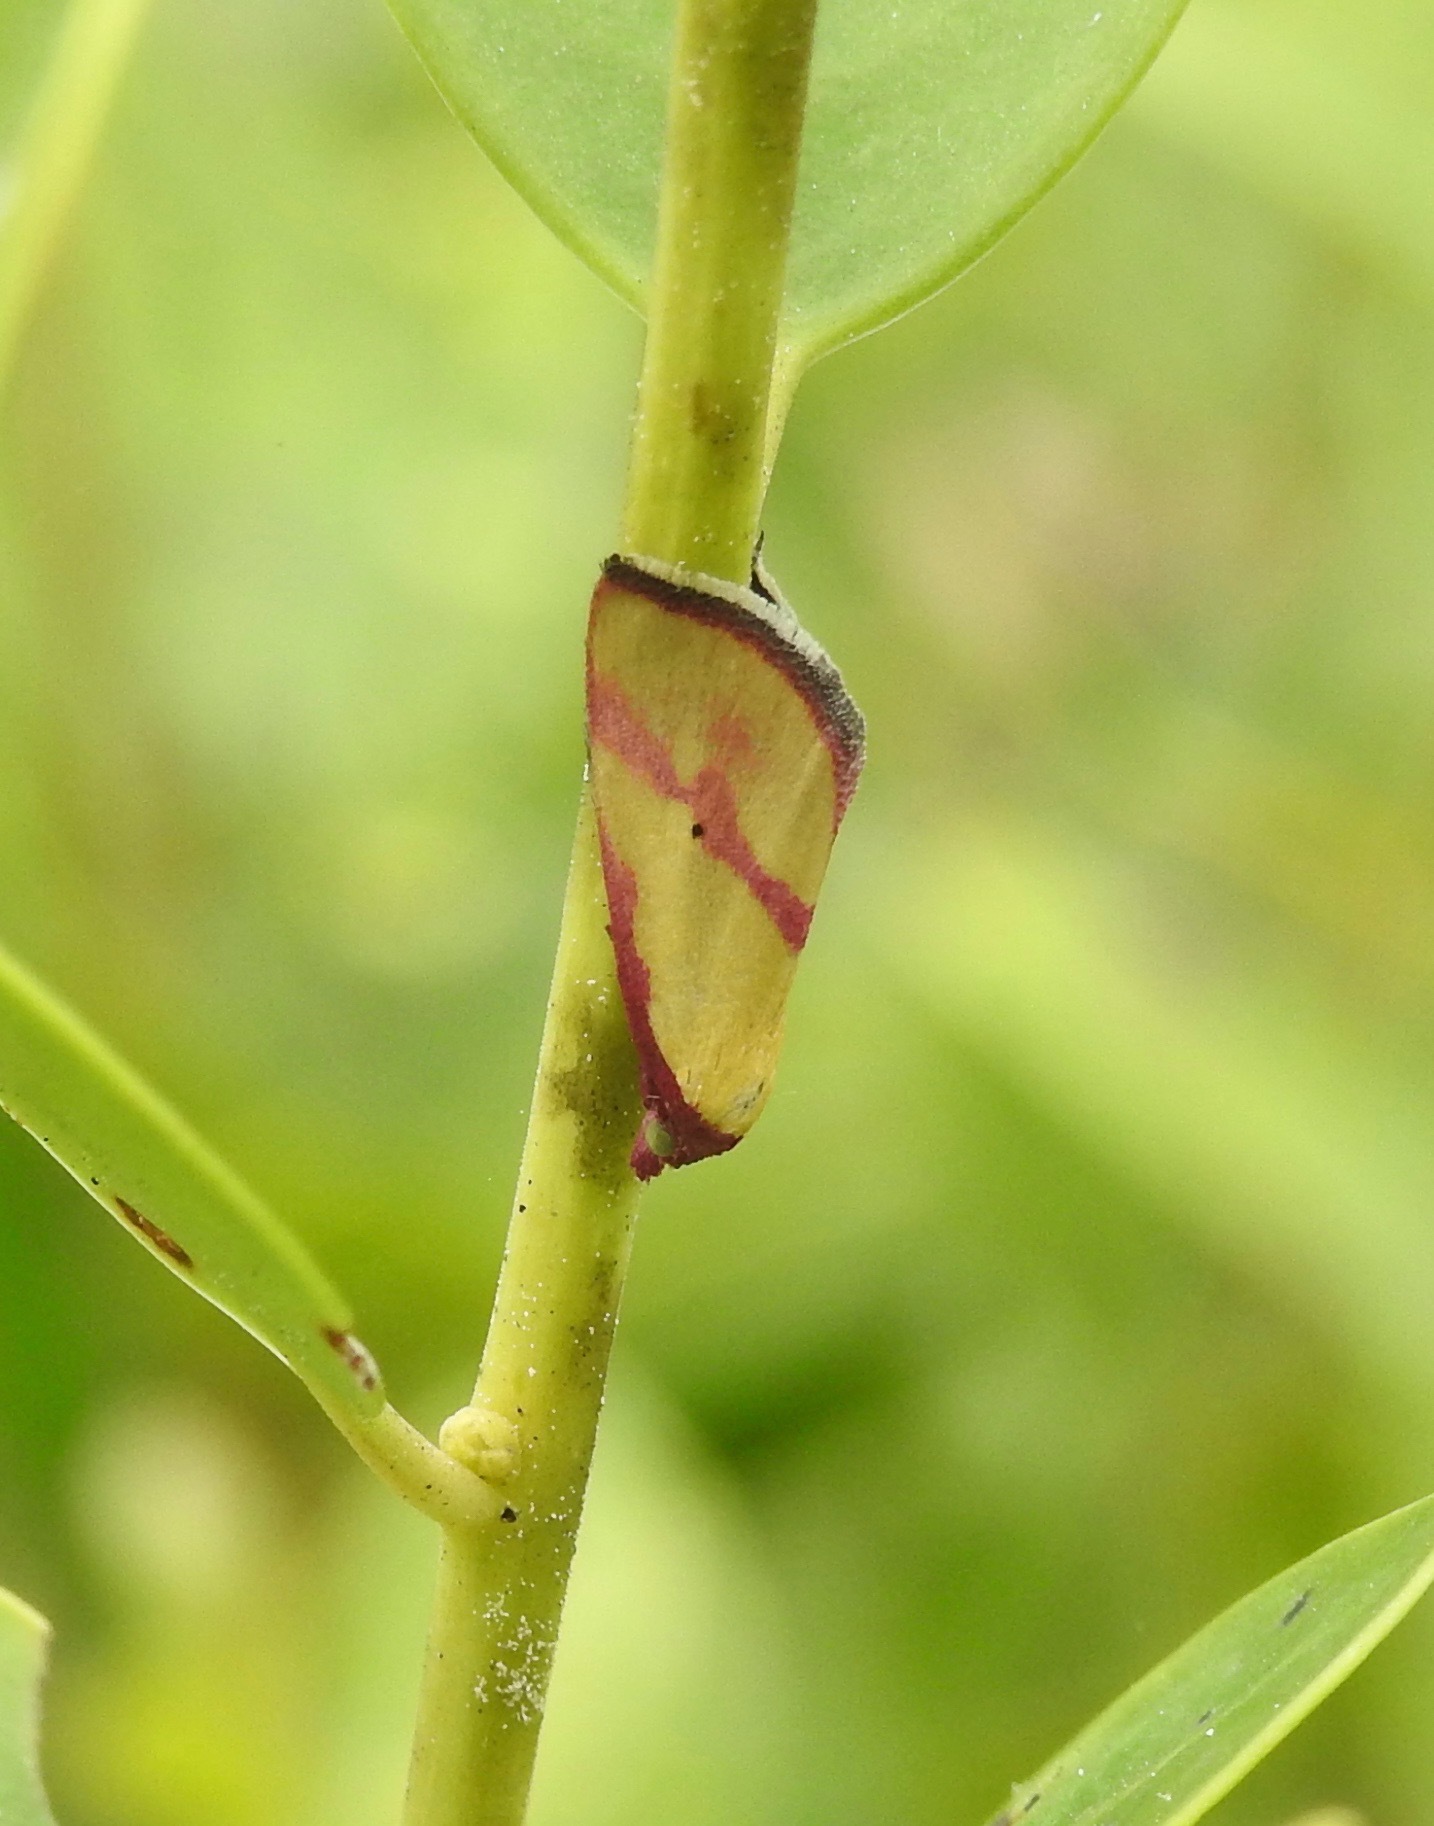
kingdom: Animalia
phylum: Arthropoda
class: Insecta
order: Lepidoptera
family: Erebidae
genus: Phytometra
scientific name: Phytometra ernestinana
